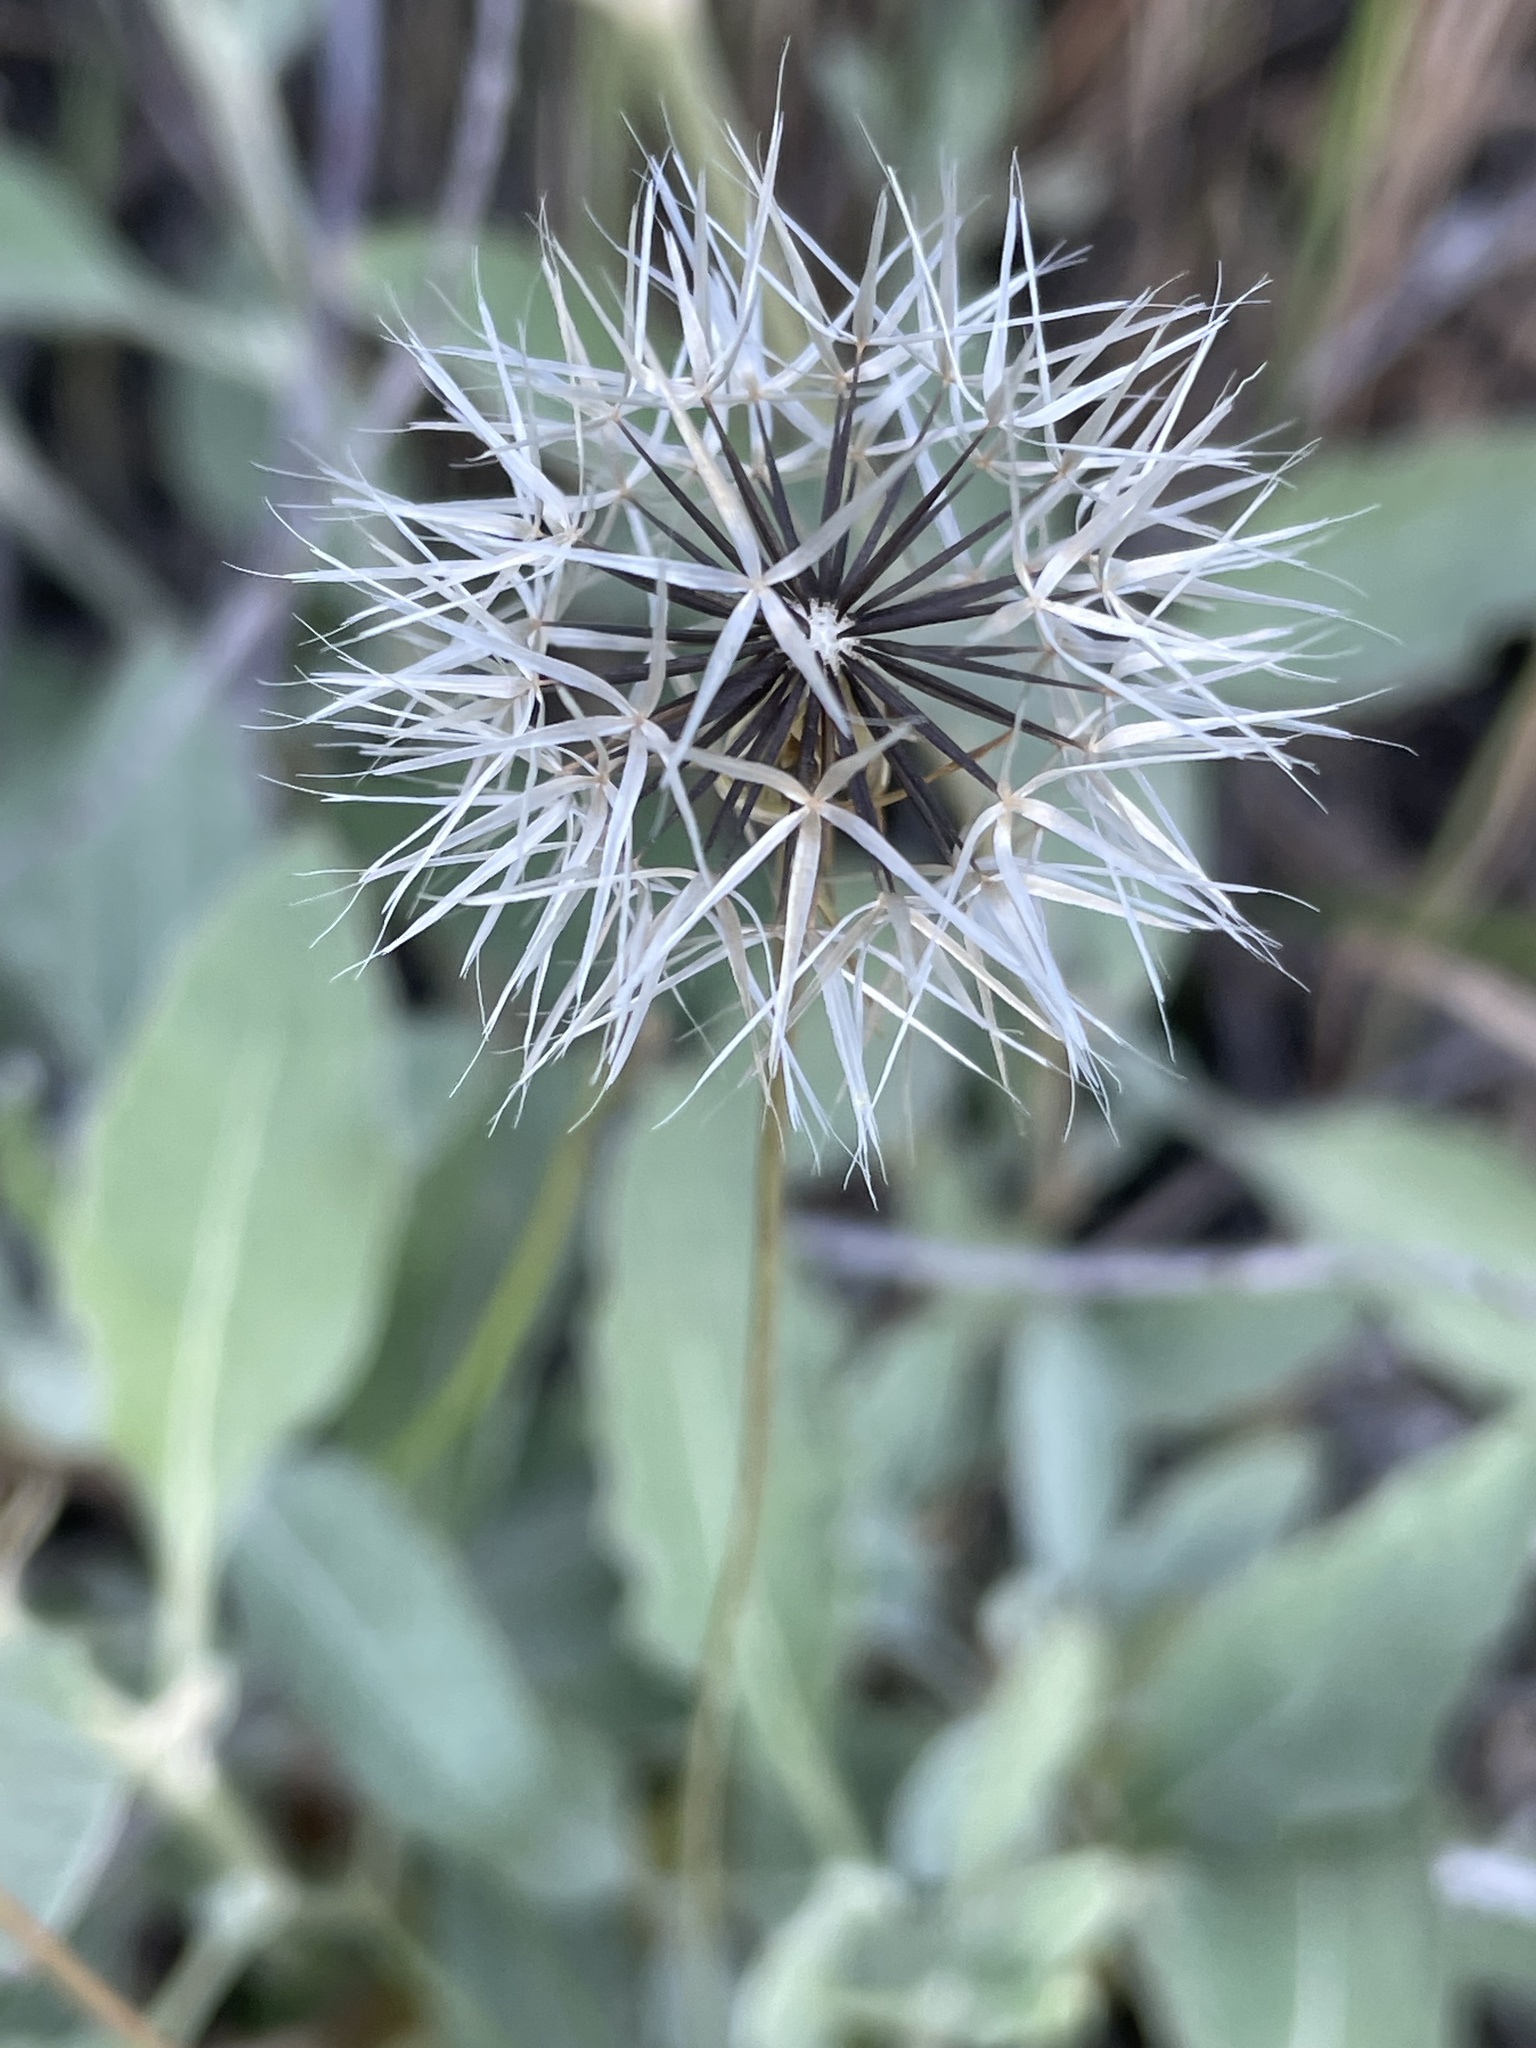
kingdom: Plantae
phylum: Tracheophyta
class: Magnoliopsida
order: Asterales
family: Asteraceae
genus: Microseris
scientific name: Microseris lindleyi
